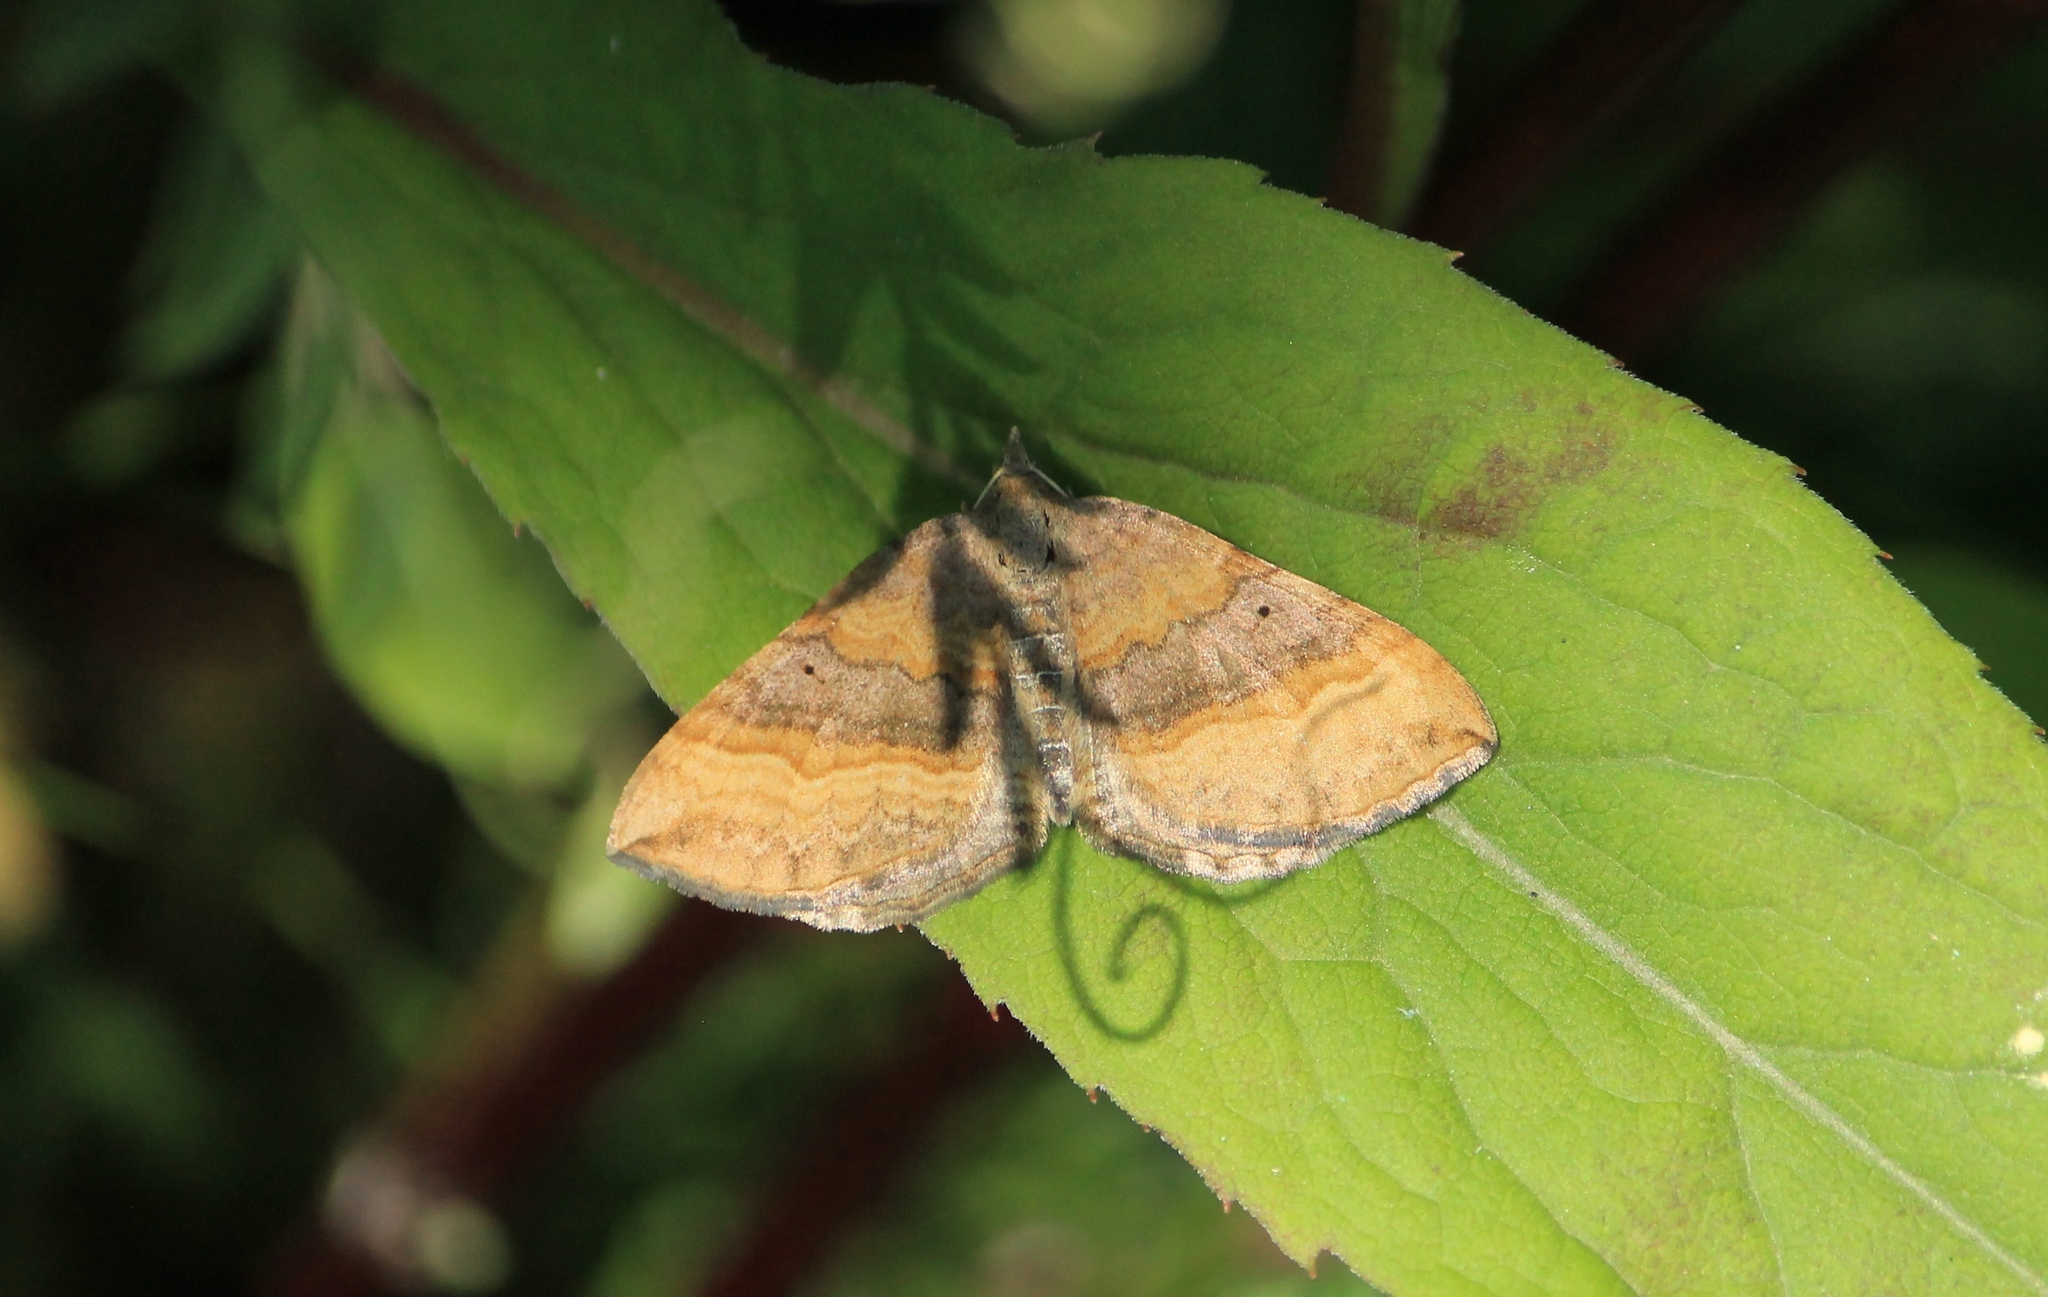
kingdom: Animalia
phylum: Arthropoda
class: Insecta
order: Lepidoptera
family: Geometridae
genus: Scotopteryx
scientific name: Scotopteryx chenopodiata
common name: Shaded broad-bar
